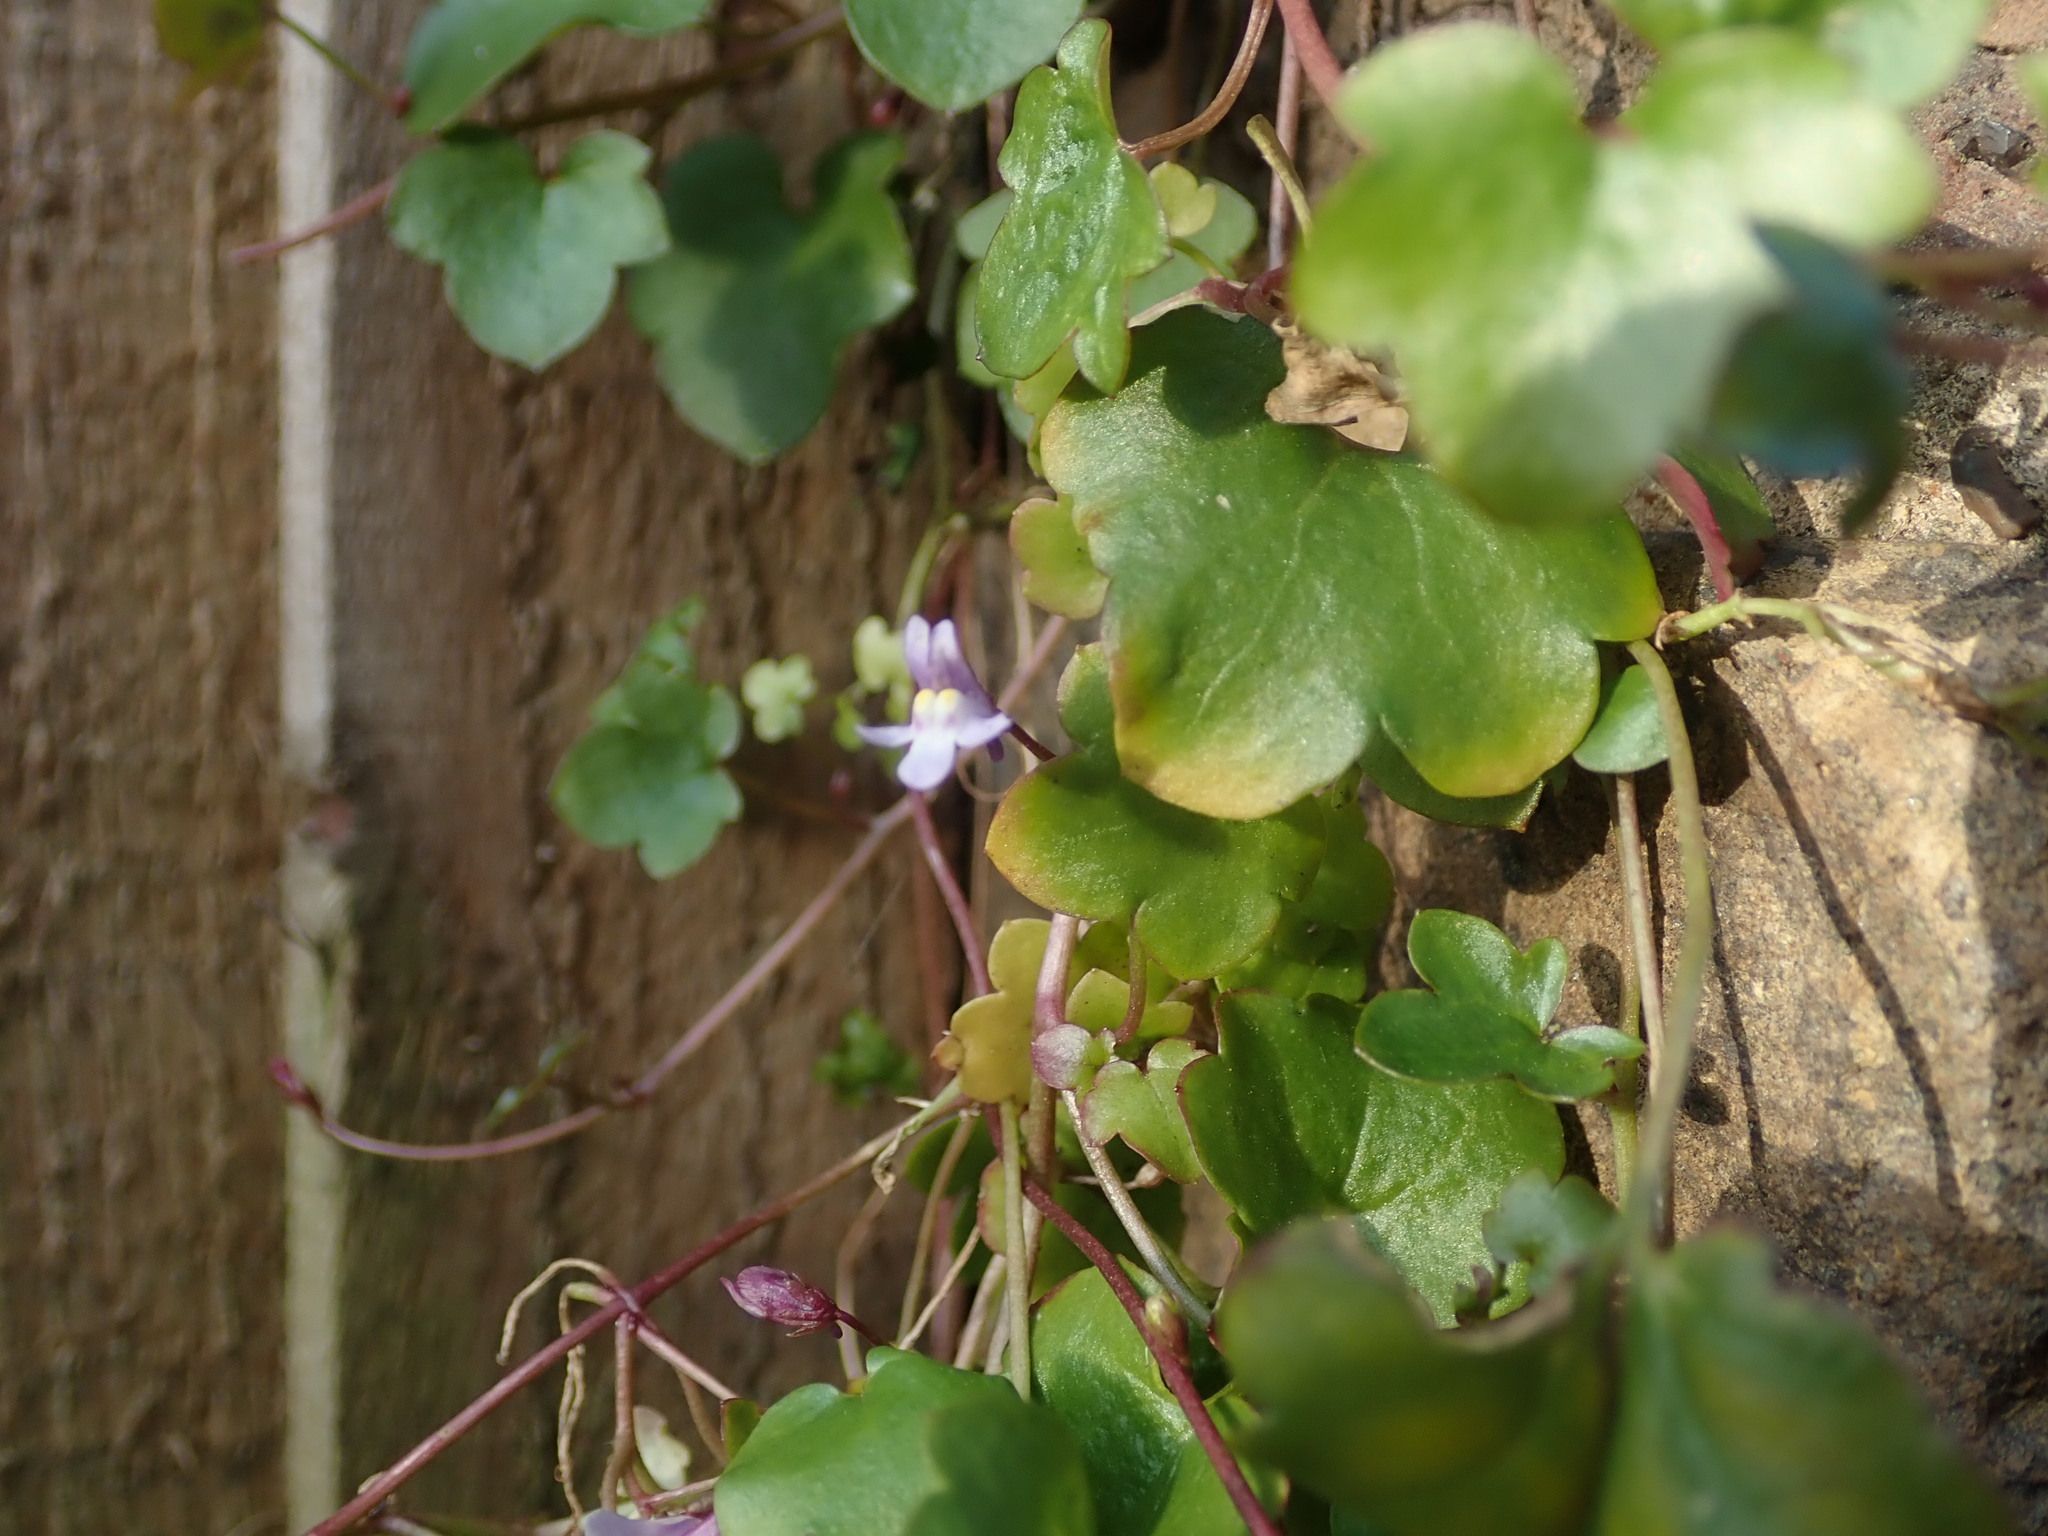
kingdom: Plantae
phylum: Tracheophyta
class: Magnoliopsida
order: Lamiales
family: Plantaginaceae
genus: Cymbalaria
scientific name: Cymbalaria muralis
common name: Ivy-leaved toadflax
